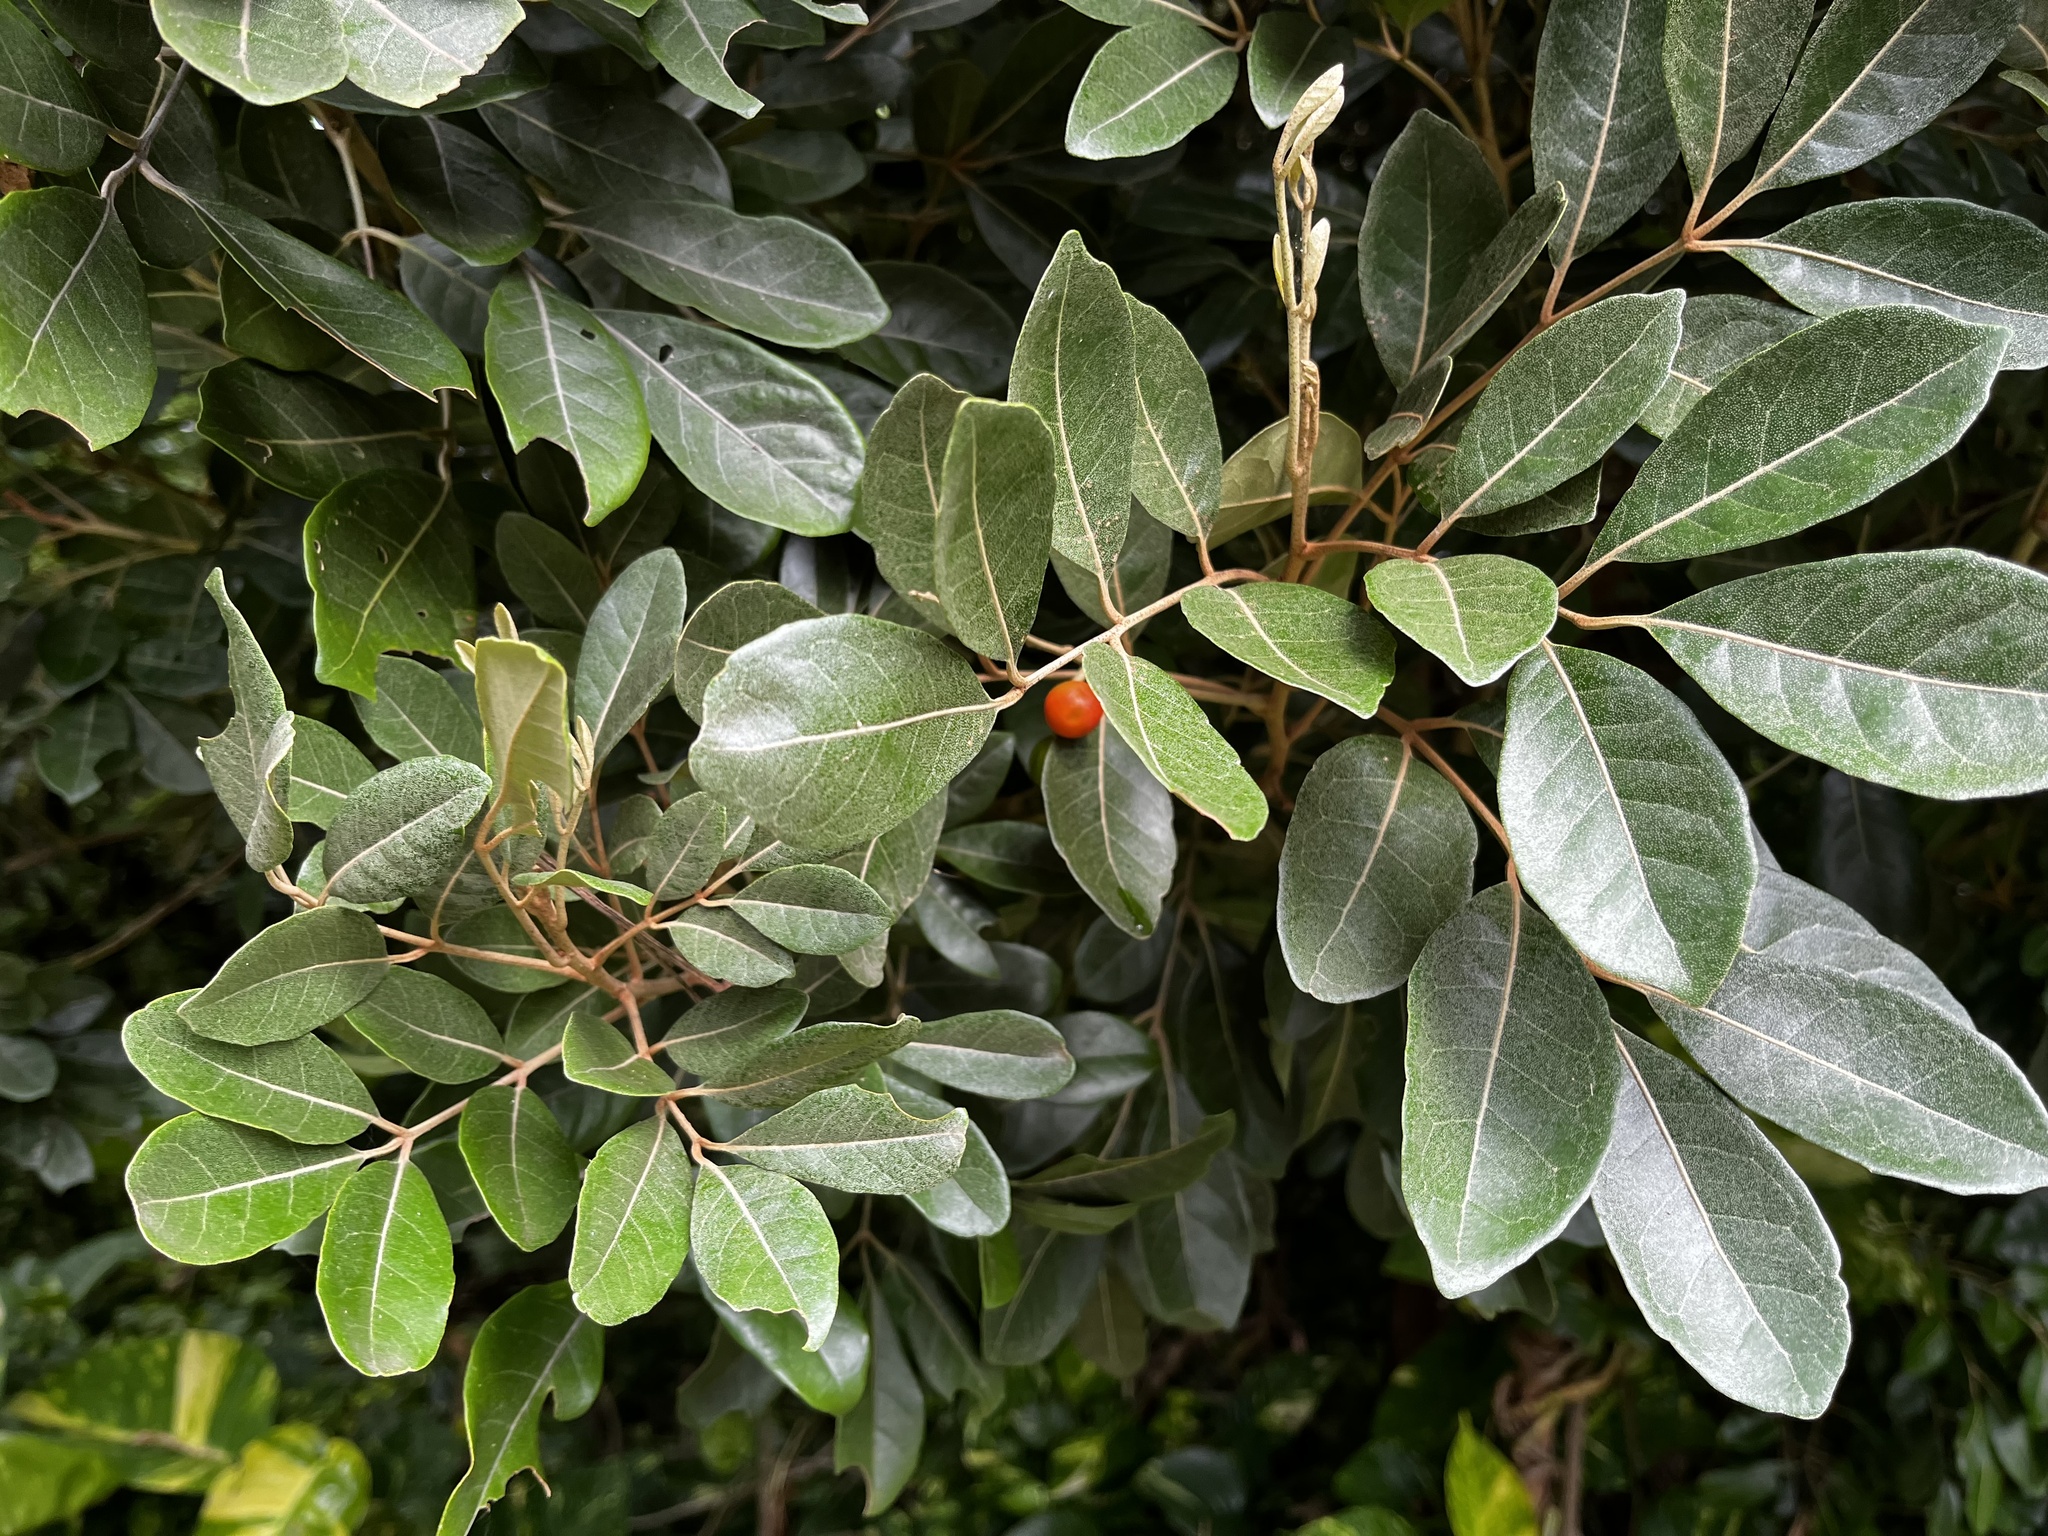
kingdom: Plantae
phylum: Tracheophyta
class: Magnoliopsida
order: Sapindales
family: Meliaceae
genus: Aglaia
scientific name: Aglaia elaeagnoidea
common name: Droopyleaf
